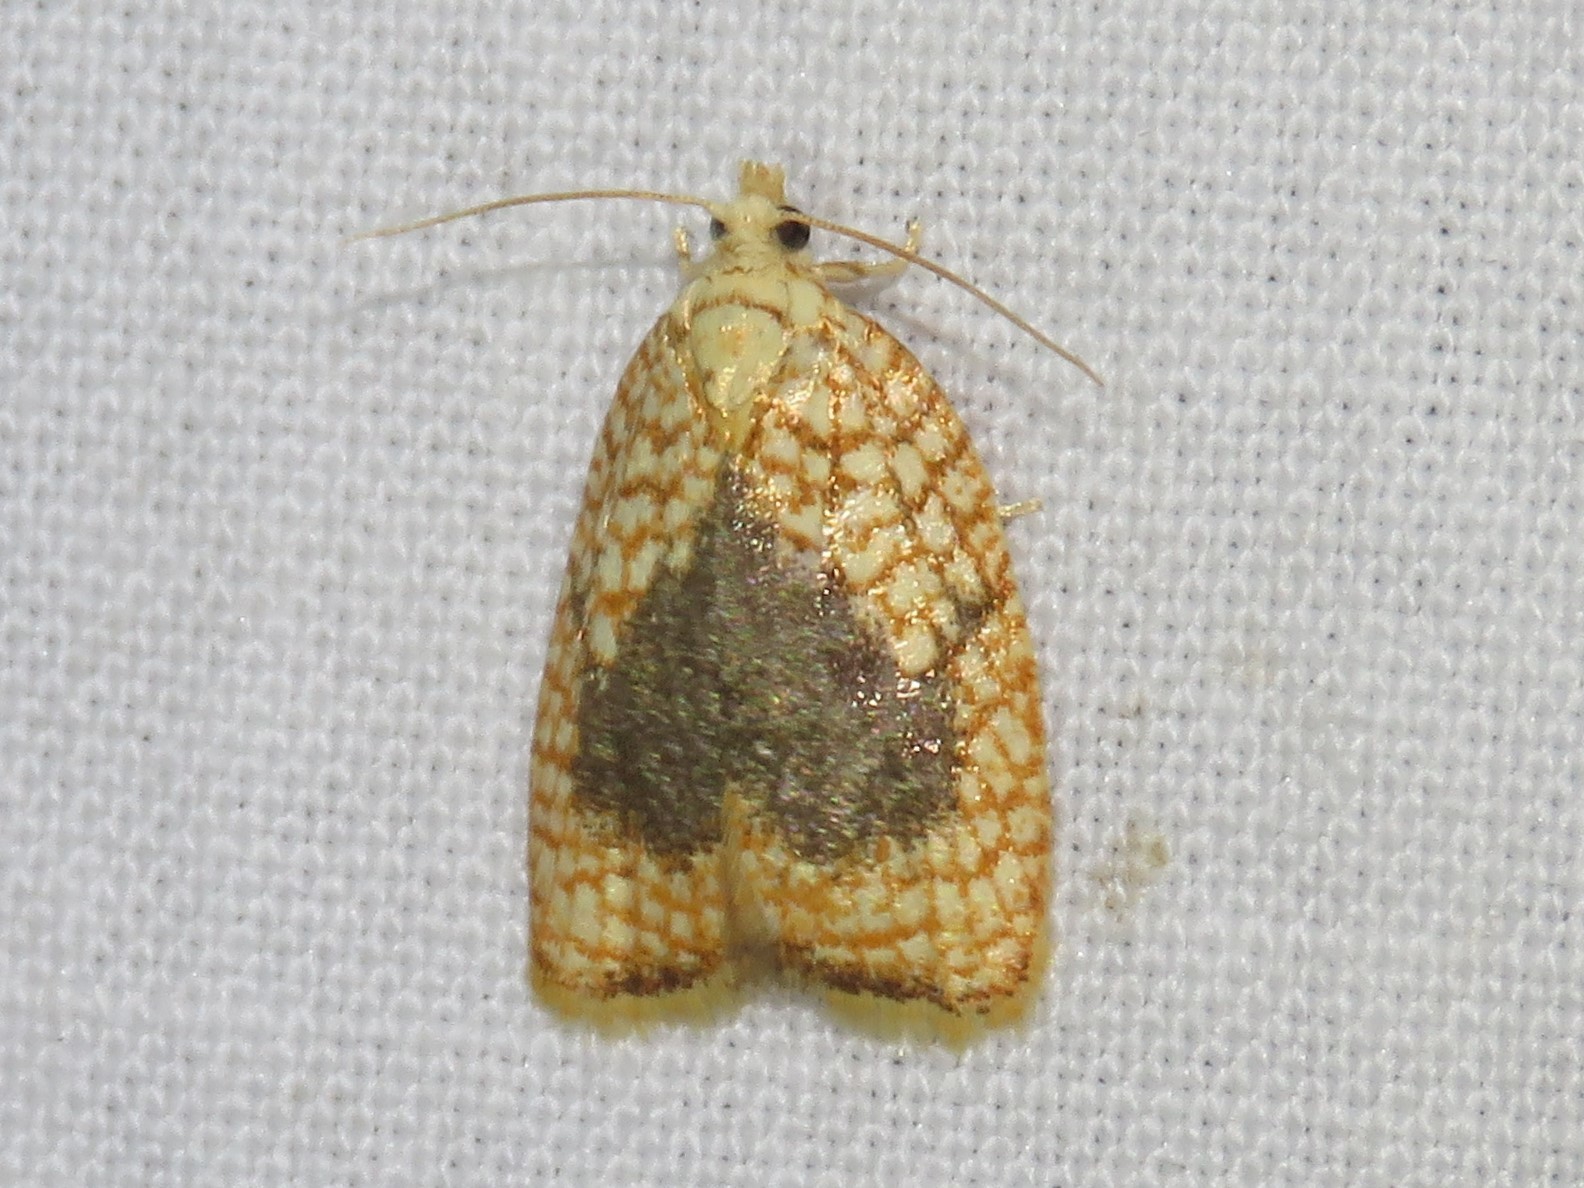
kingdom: Animalia
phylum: Arthropoda
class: Insecta
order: Lepidoptera
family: Tortricidae
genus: Acleris
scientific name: Acleris forsskaleana
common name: Maple button
